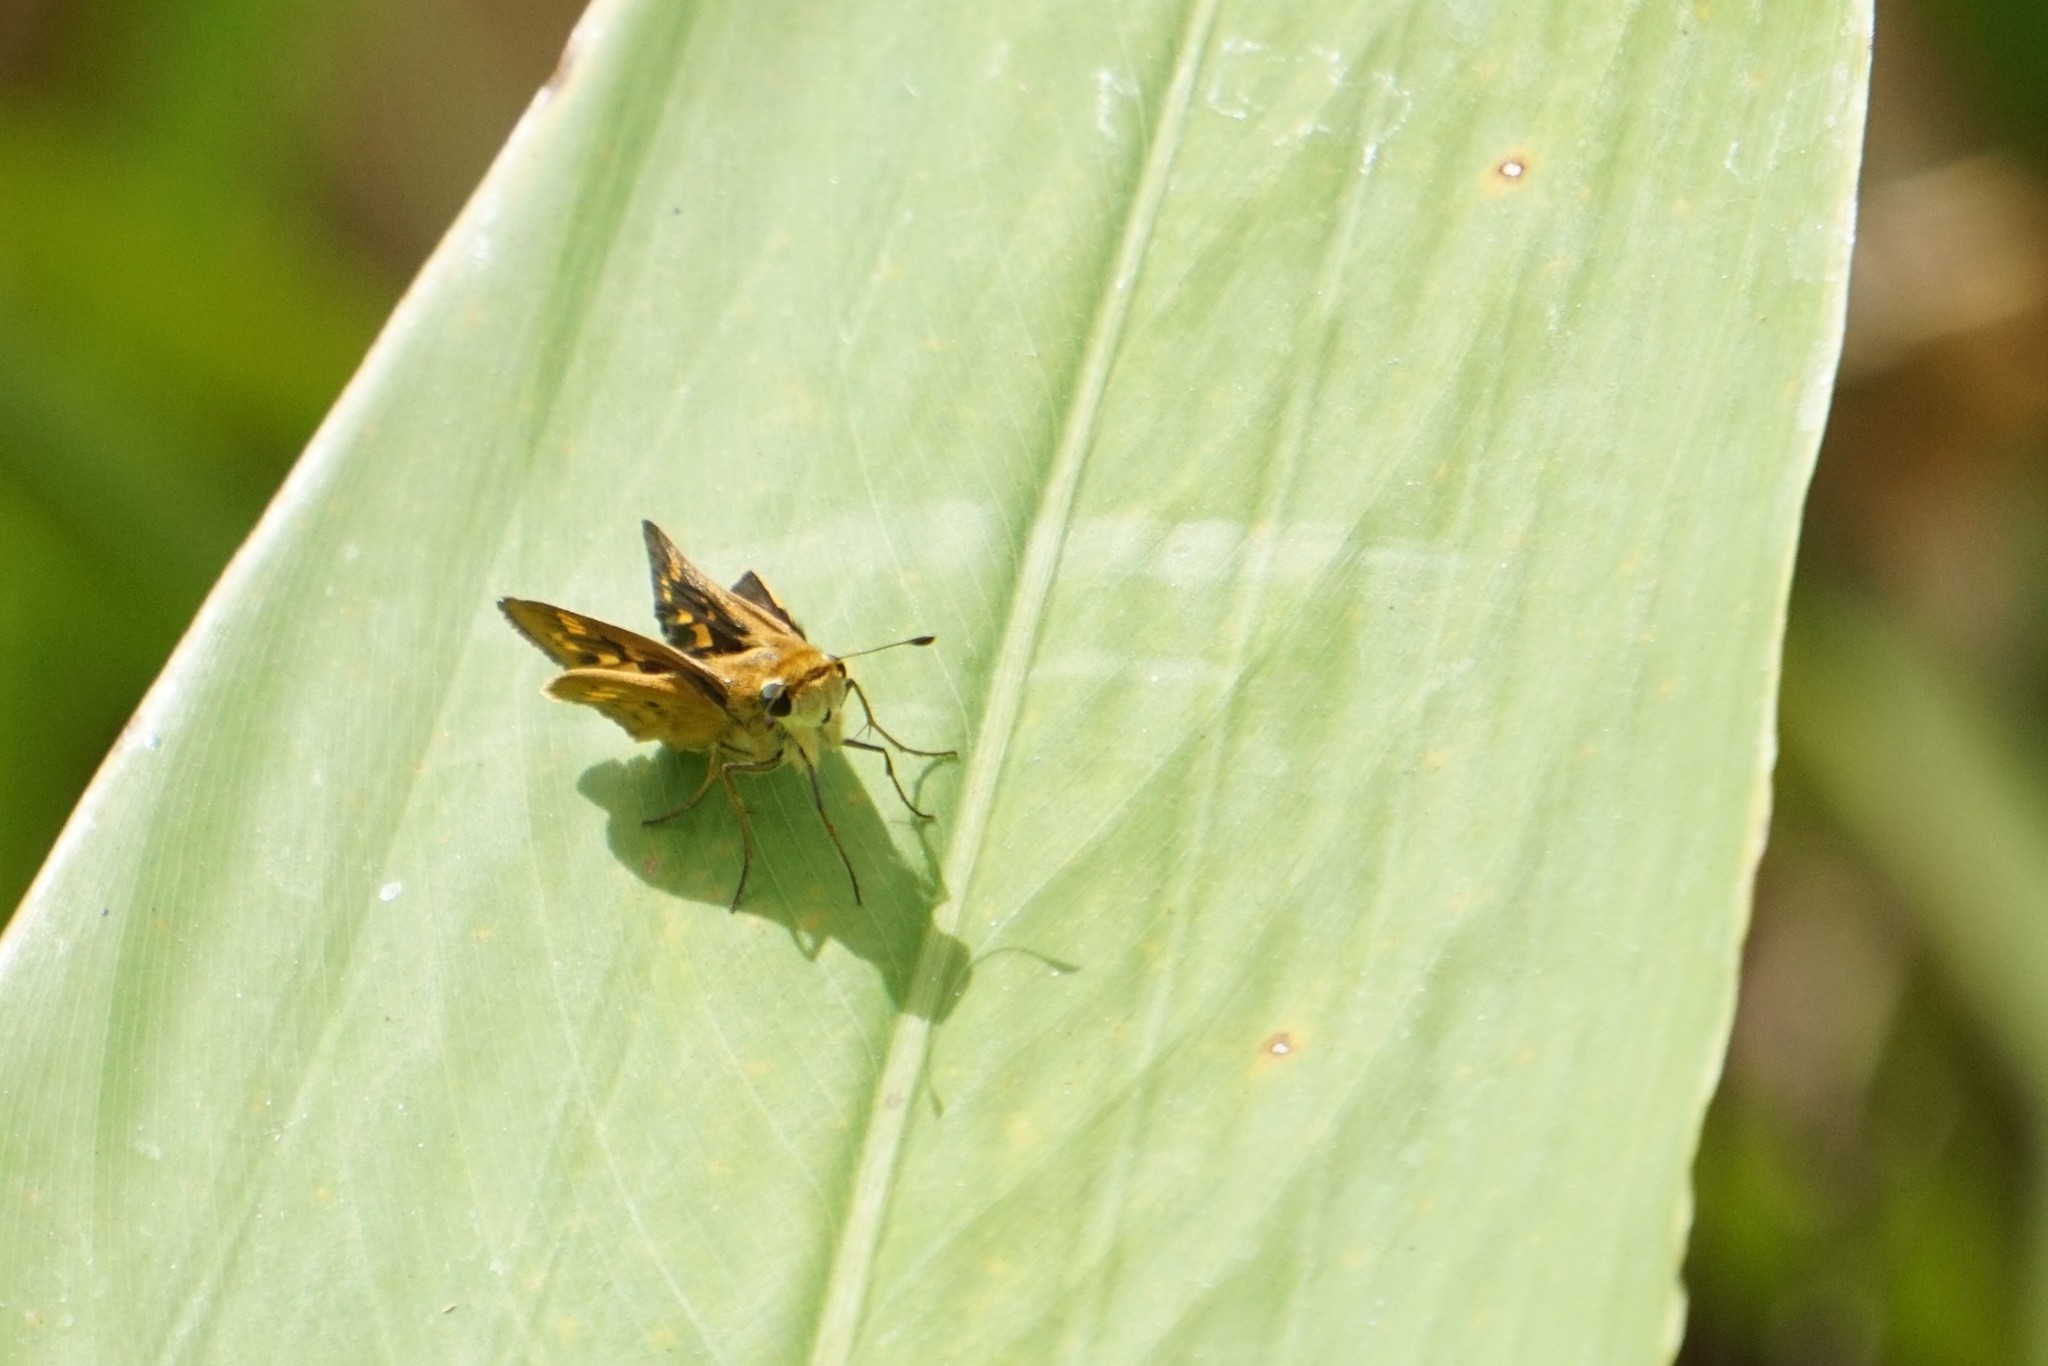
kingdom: Animalia
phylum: Arthropoda
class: Insecta
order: Lepidoptera
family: Hesperiidae
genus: Hylephila
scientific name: Hylephila phyleus
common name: Fiery skipper
